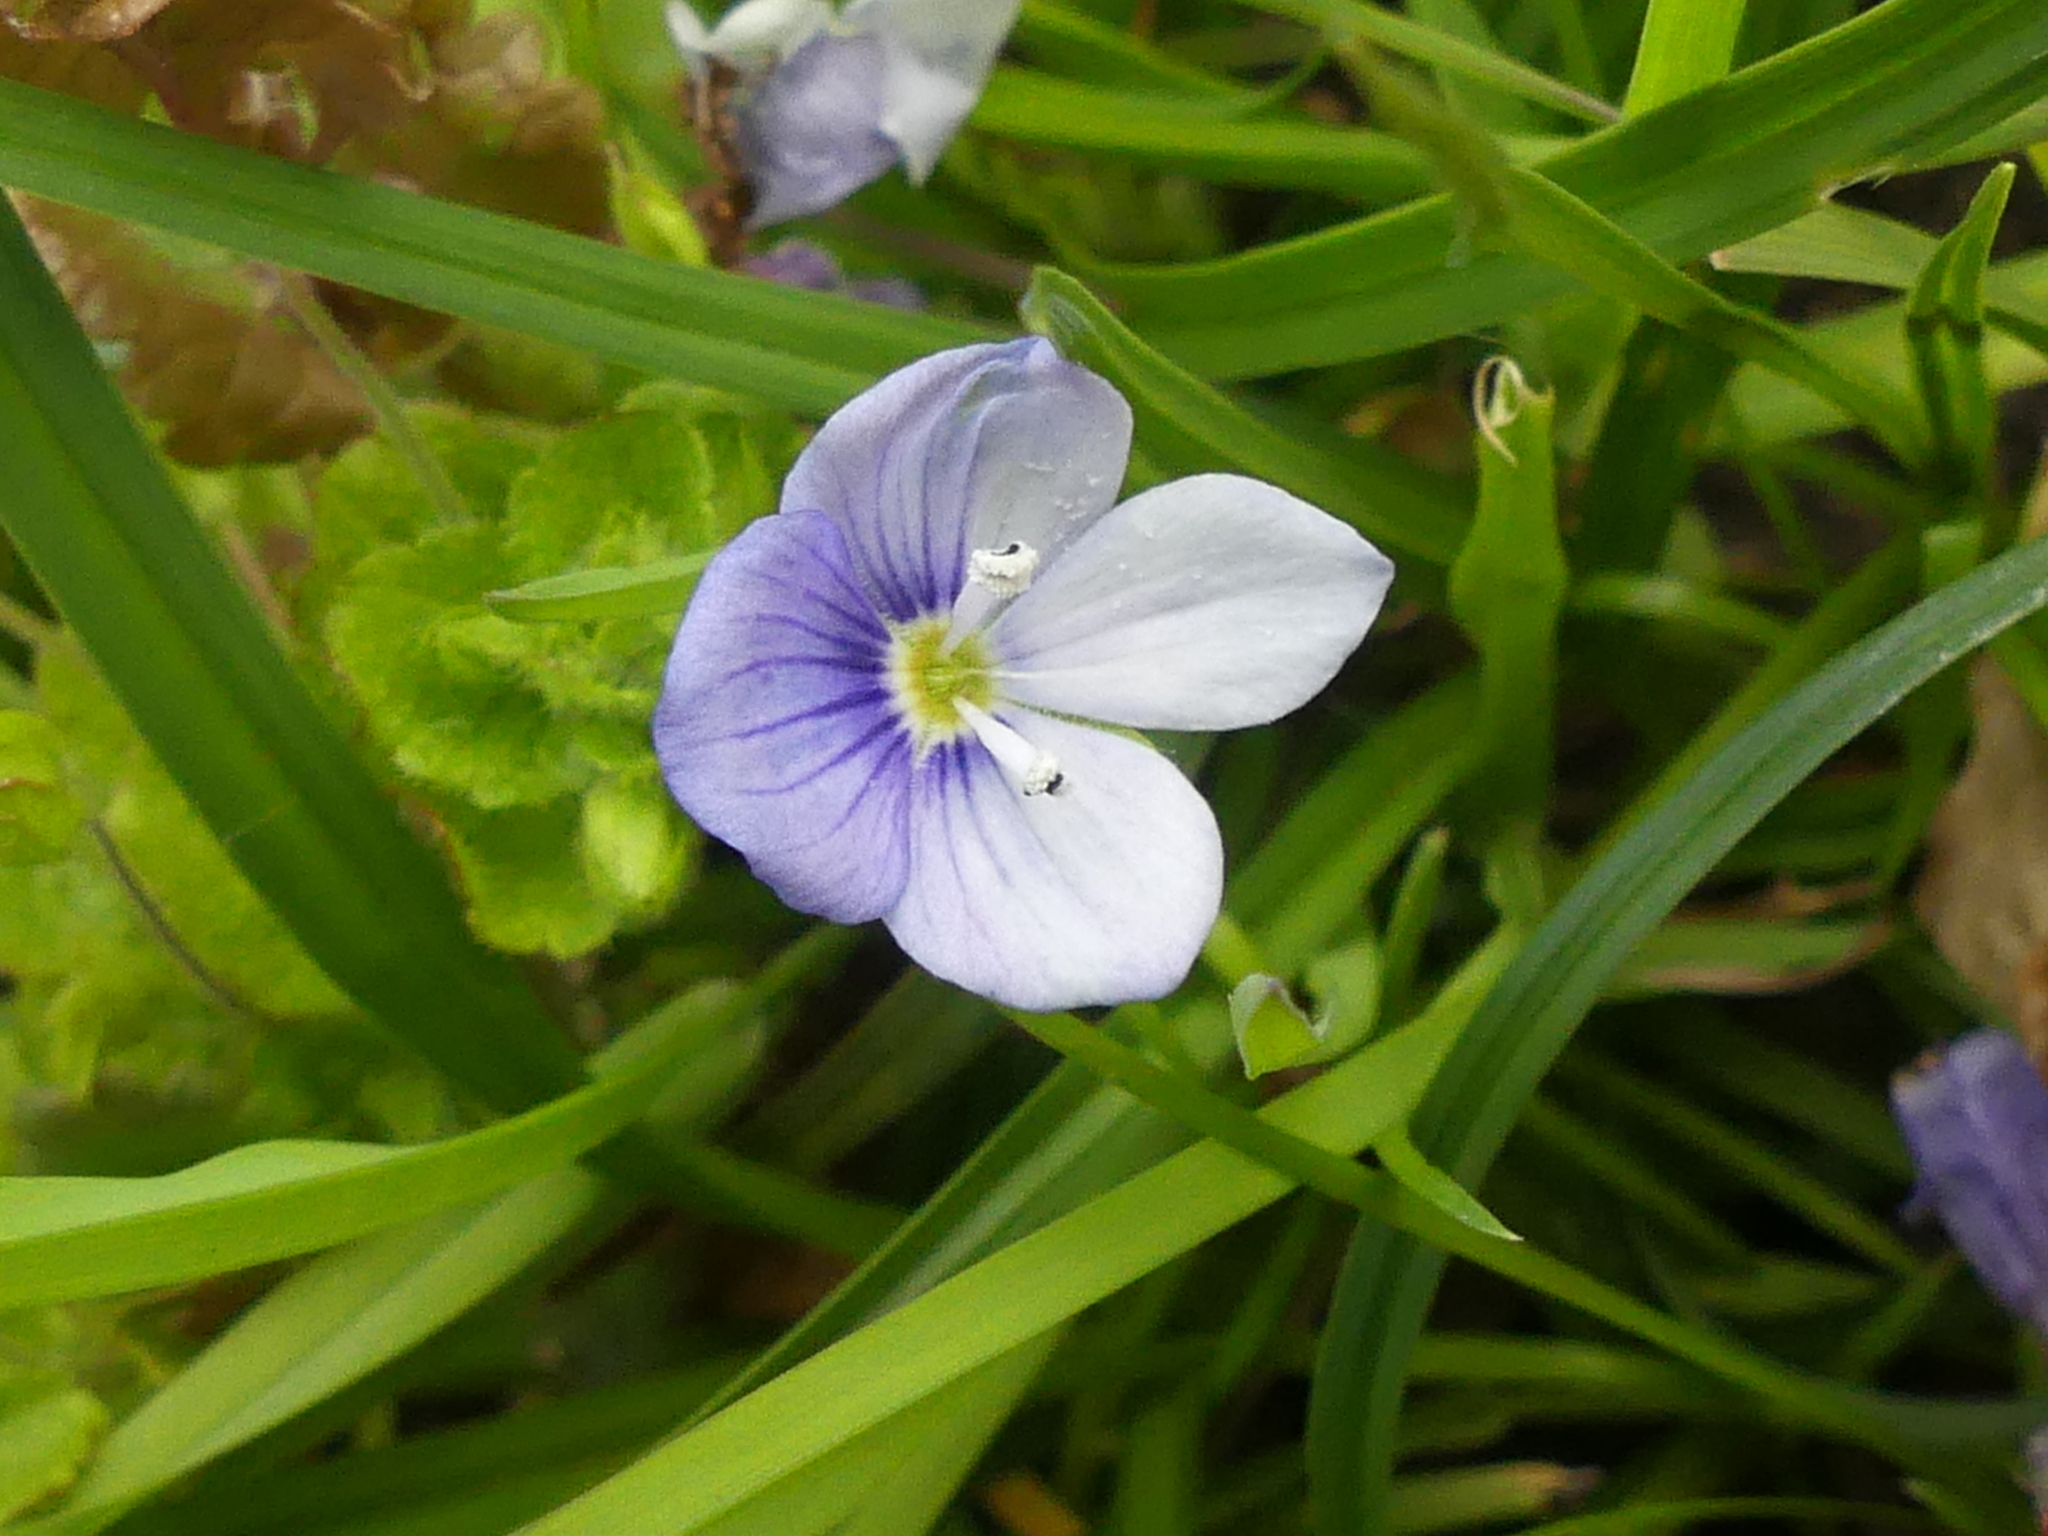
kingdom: Plantae
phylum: Tracheophyta
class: Magnoliopsida
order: Lamiales
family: Plantaginaceae
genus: Veronica
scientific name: Veronica filiformis
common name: Slender speedwell
